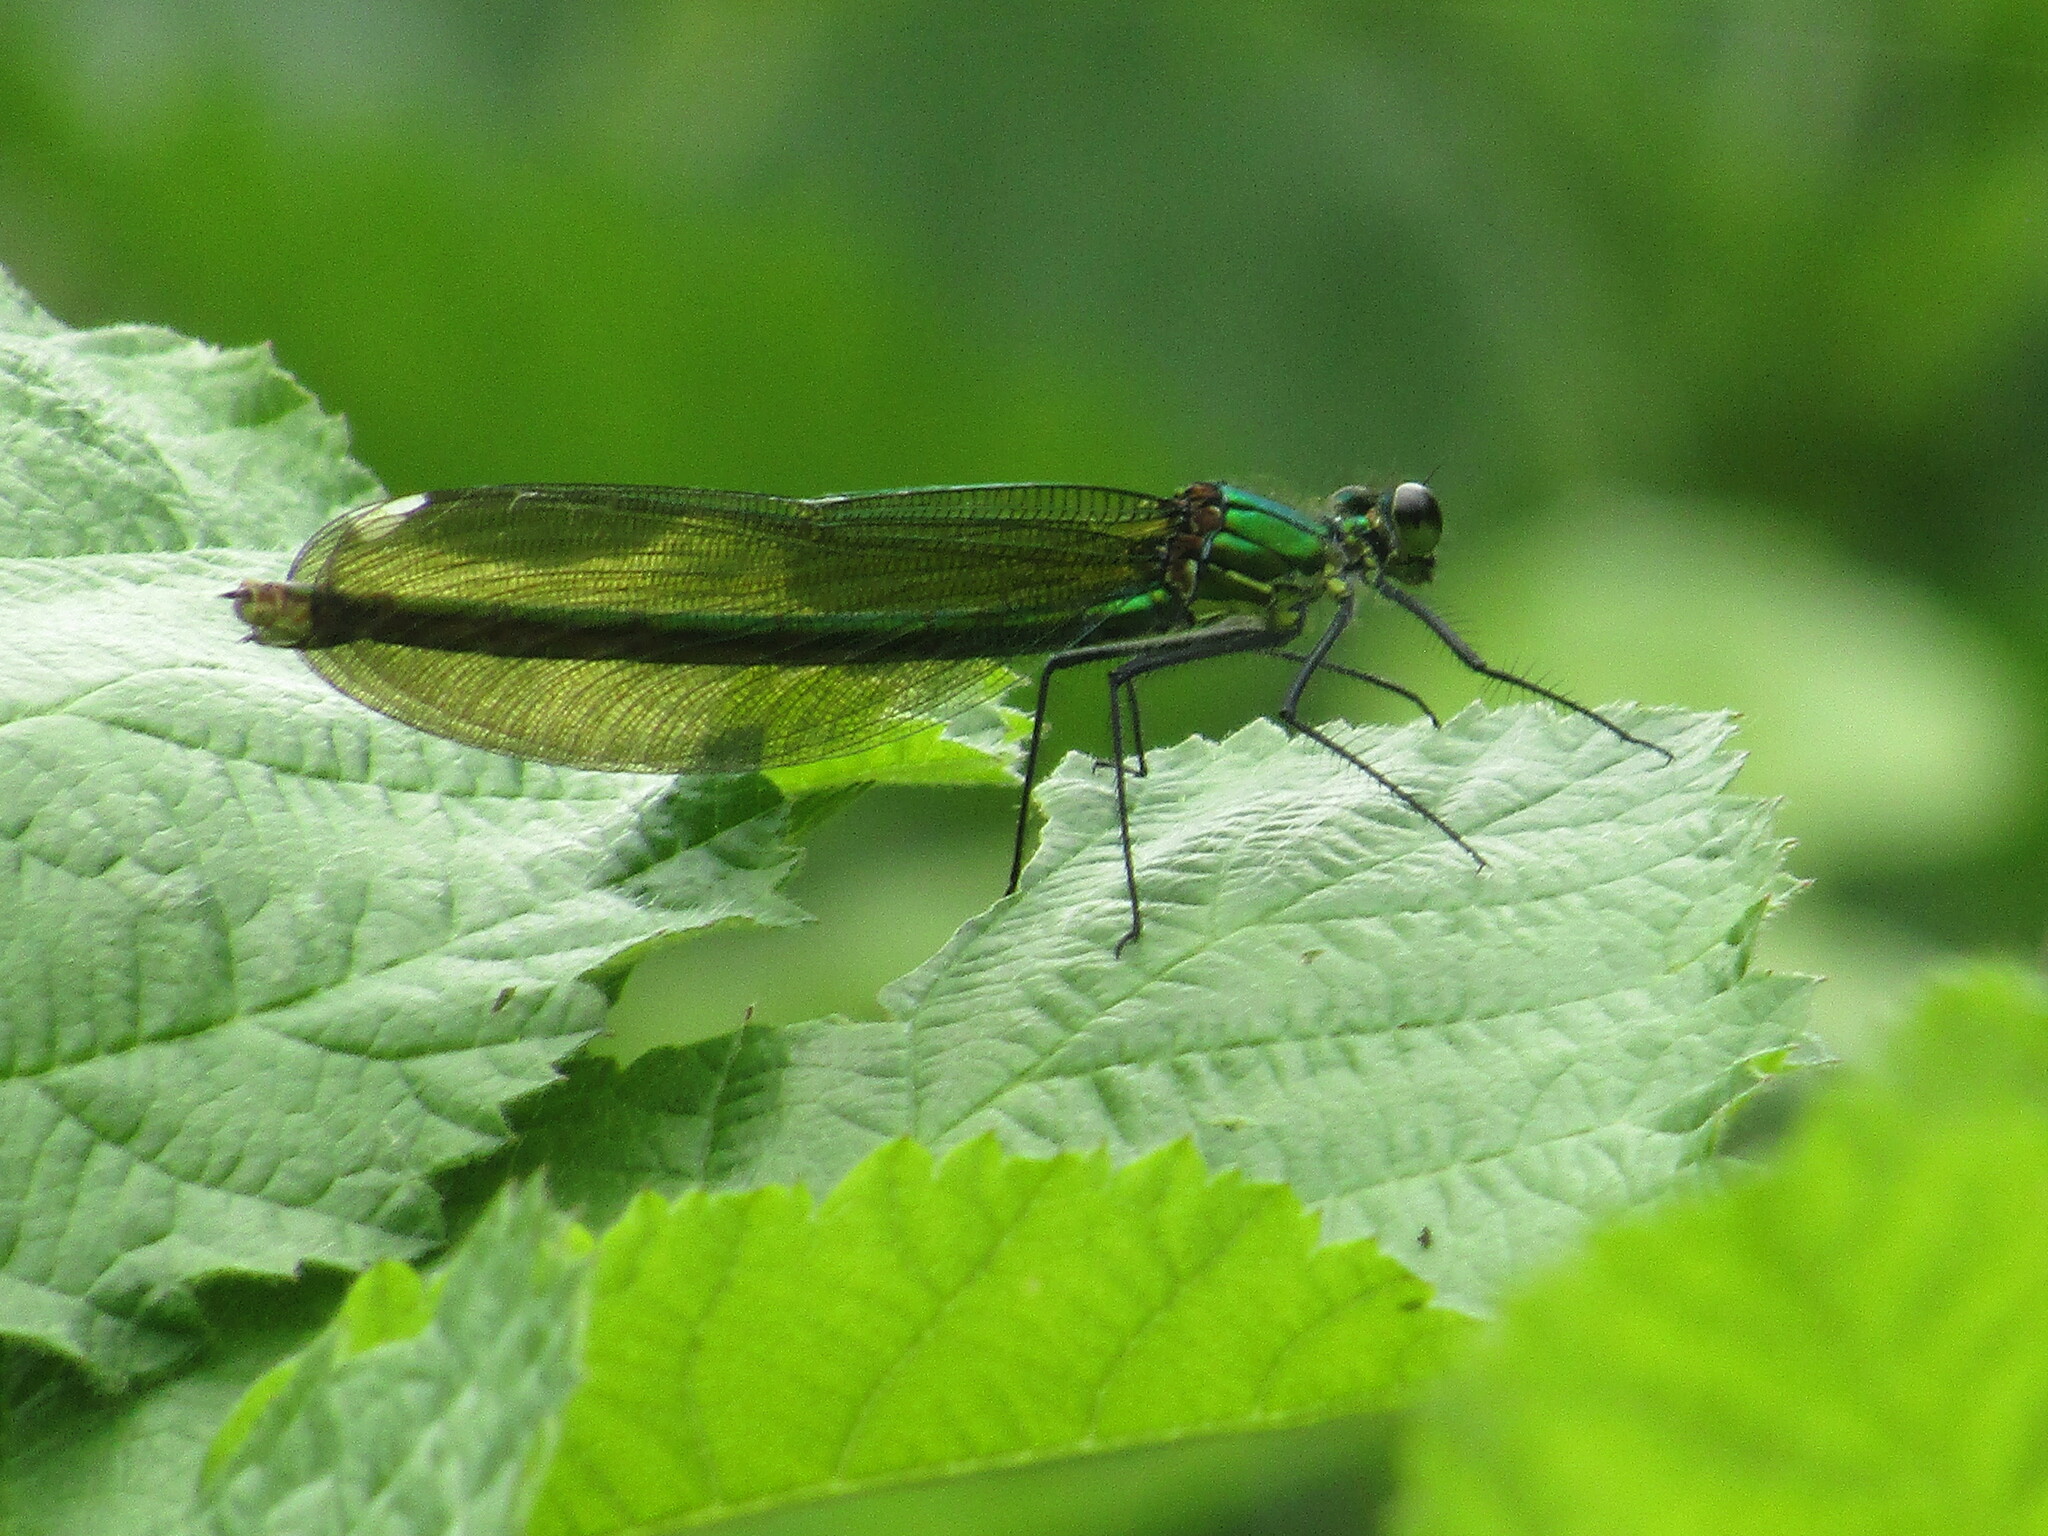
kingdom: Animalia
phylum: Arthropoda
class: Insecta
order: Odonata
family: Calopterygidae
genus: Calopteryx
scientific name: Calopteryx splendens
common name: Banded demoiselle
